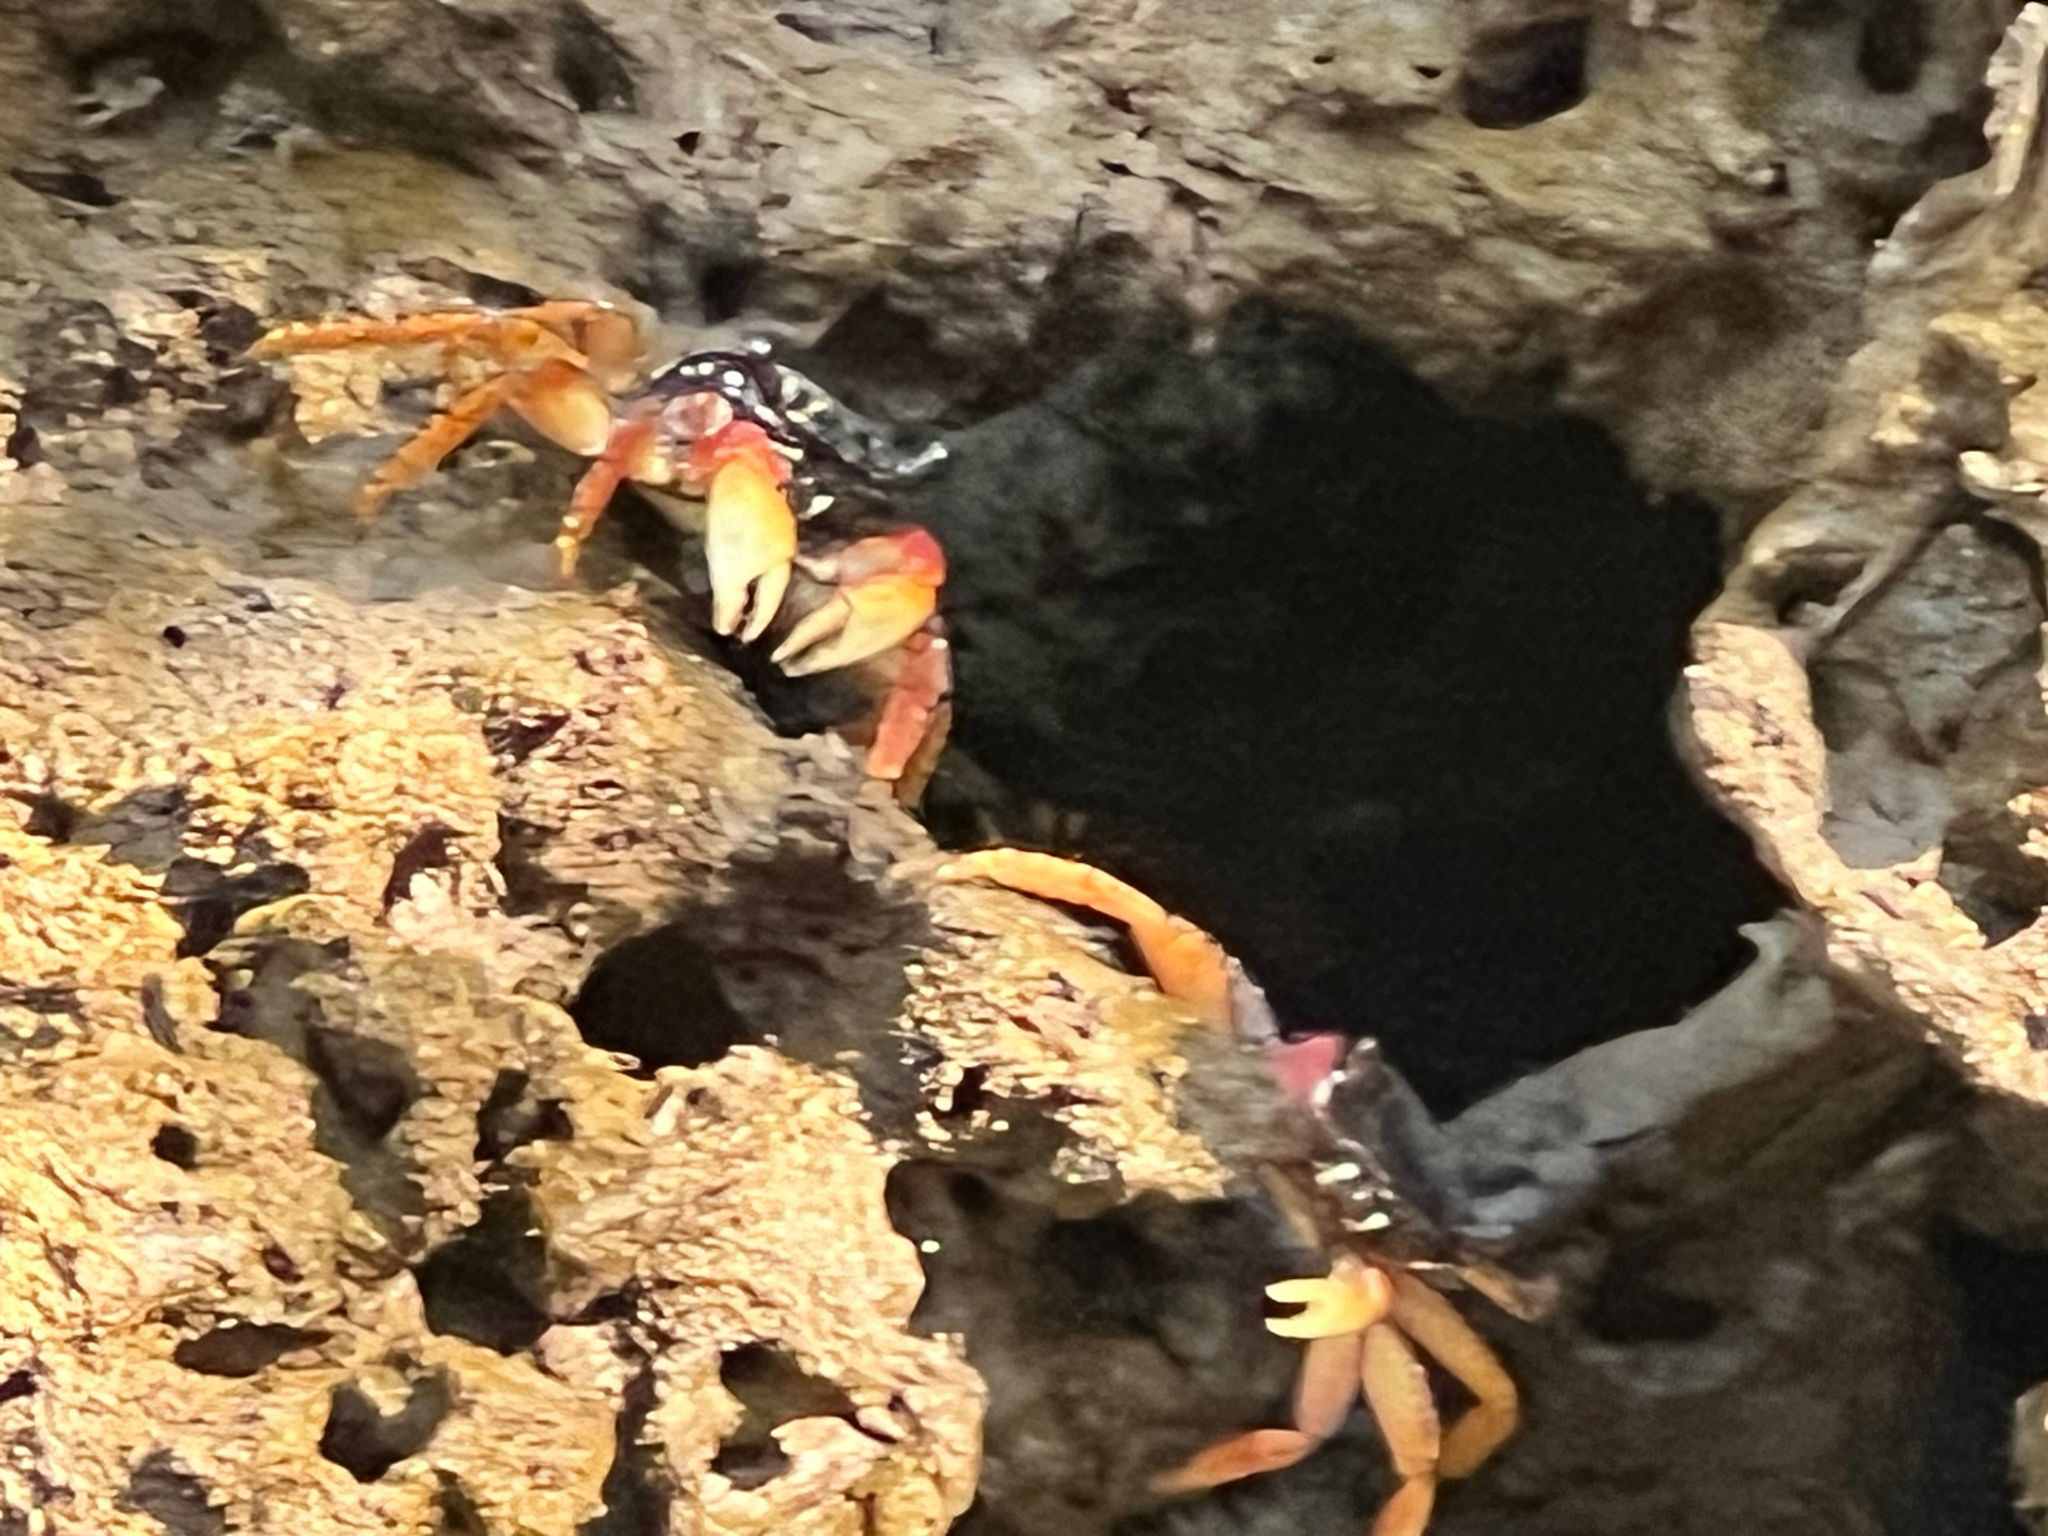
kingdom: Animalia
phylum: Arthropoda
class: Malacostraca
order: Decapoda
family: Grapsidae
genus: Goniopsis
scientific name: Goniopsis pulchra
